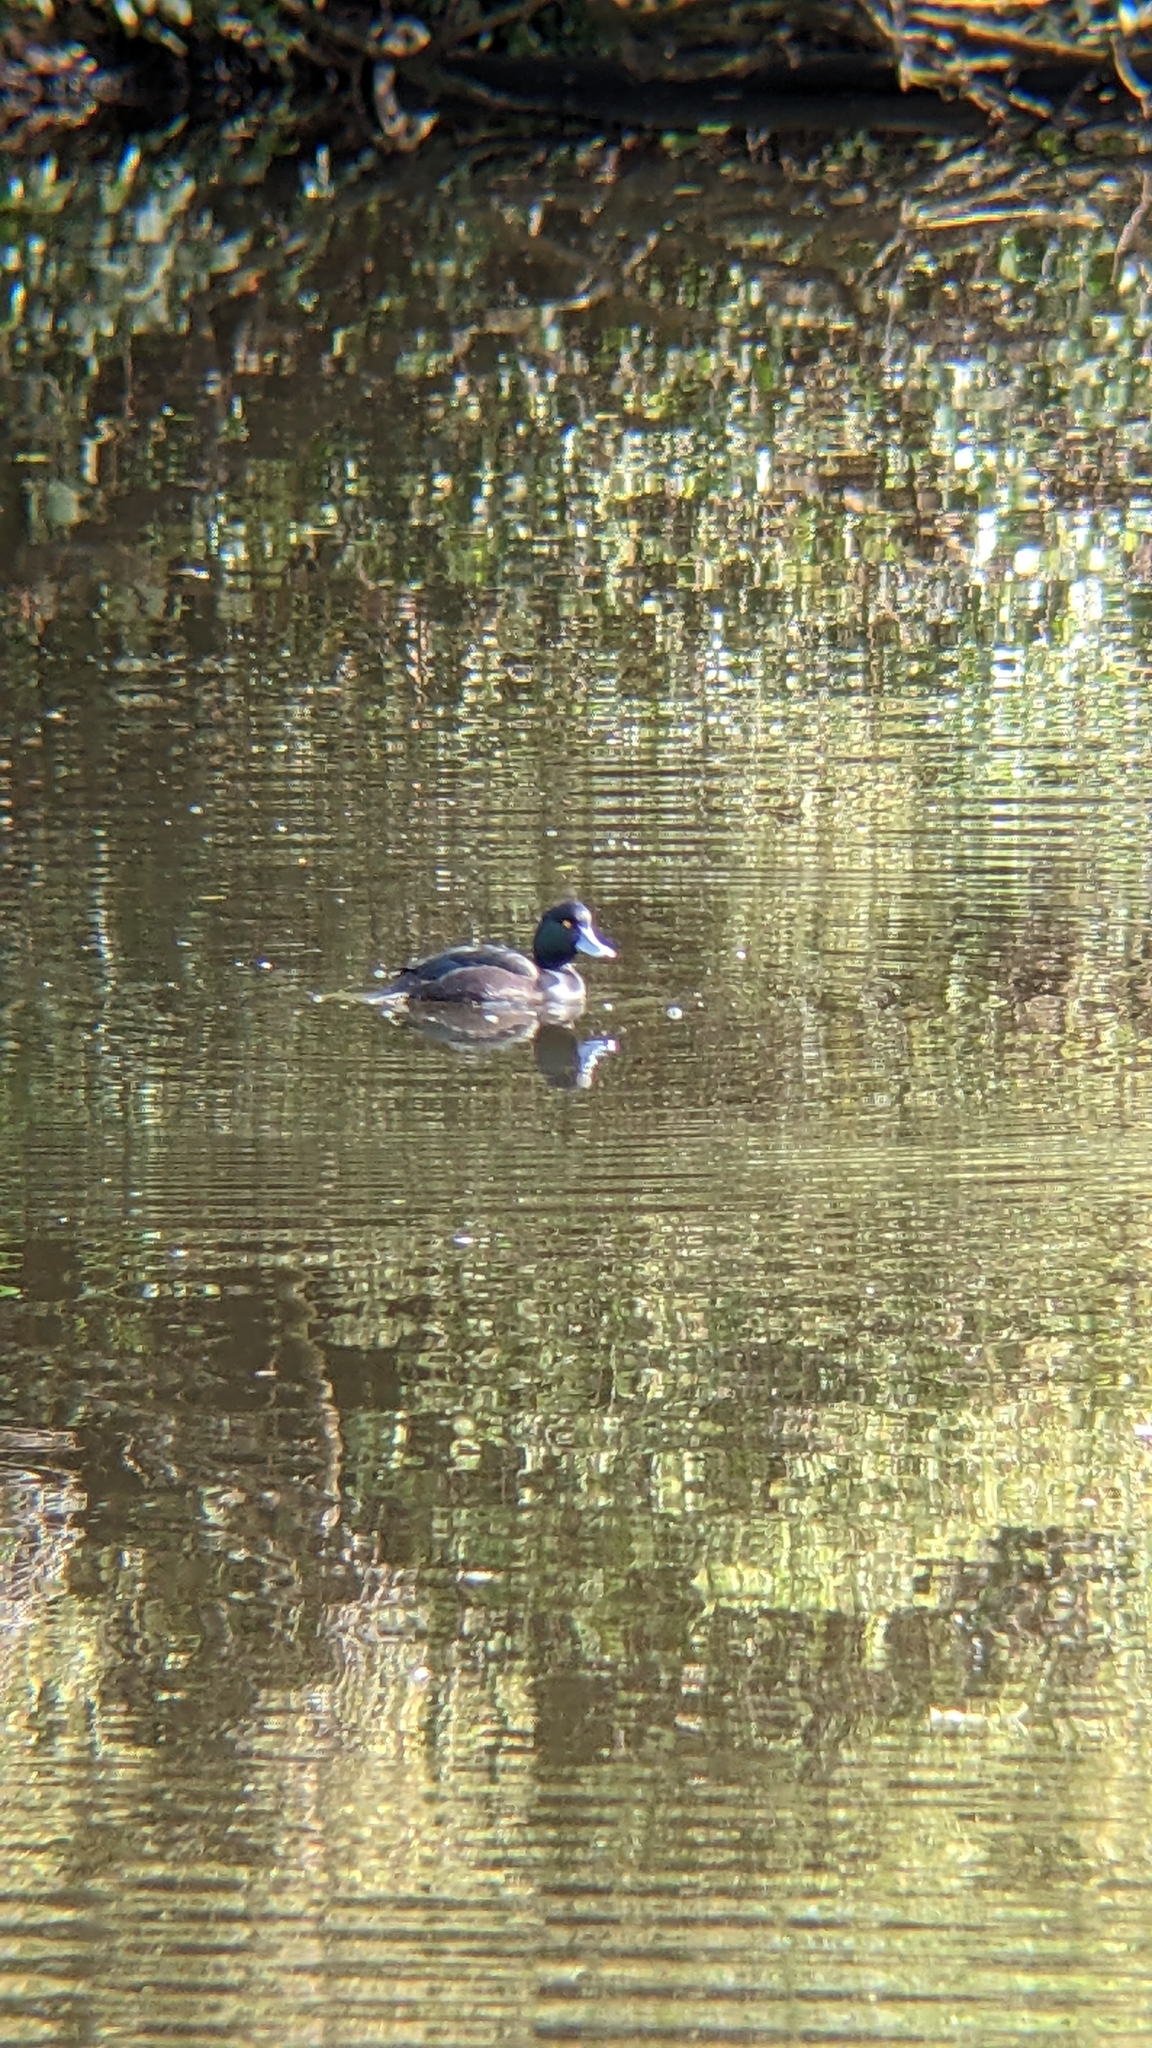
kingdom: Animalia
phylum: Chordata
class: Aves
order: Anseriformes
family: Anatidae
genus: Aythya
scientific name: Aythya novaeseelandiae
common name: New zealand scaup
